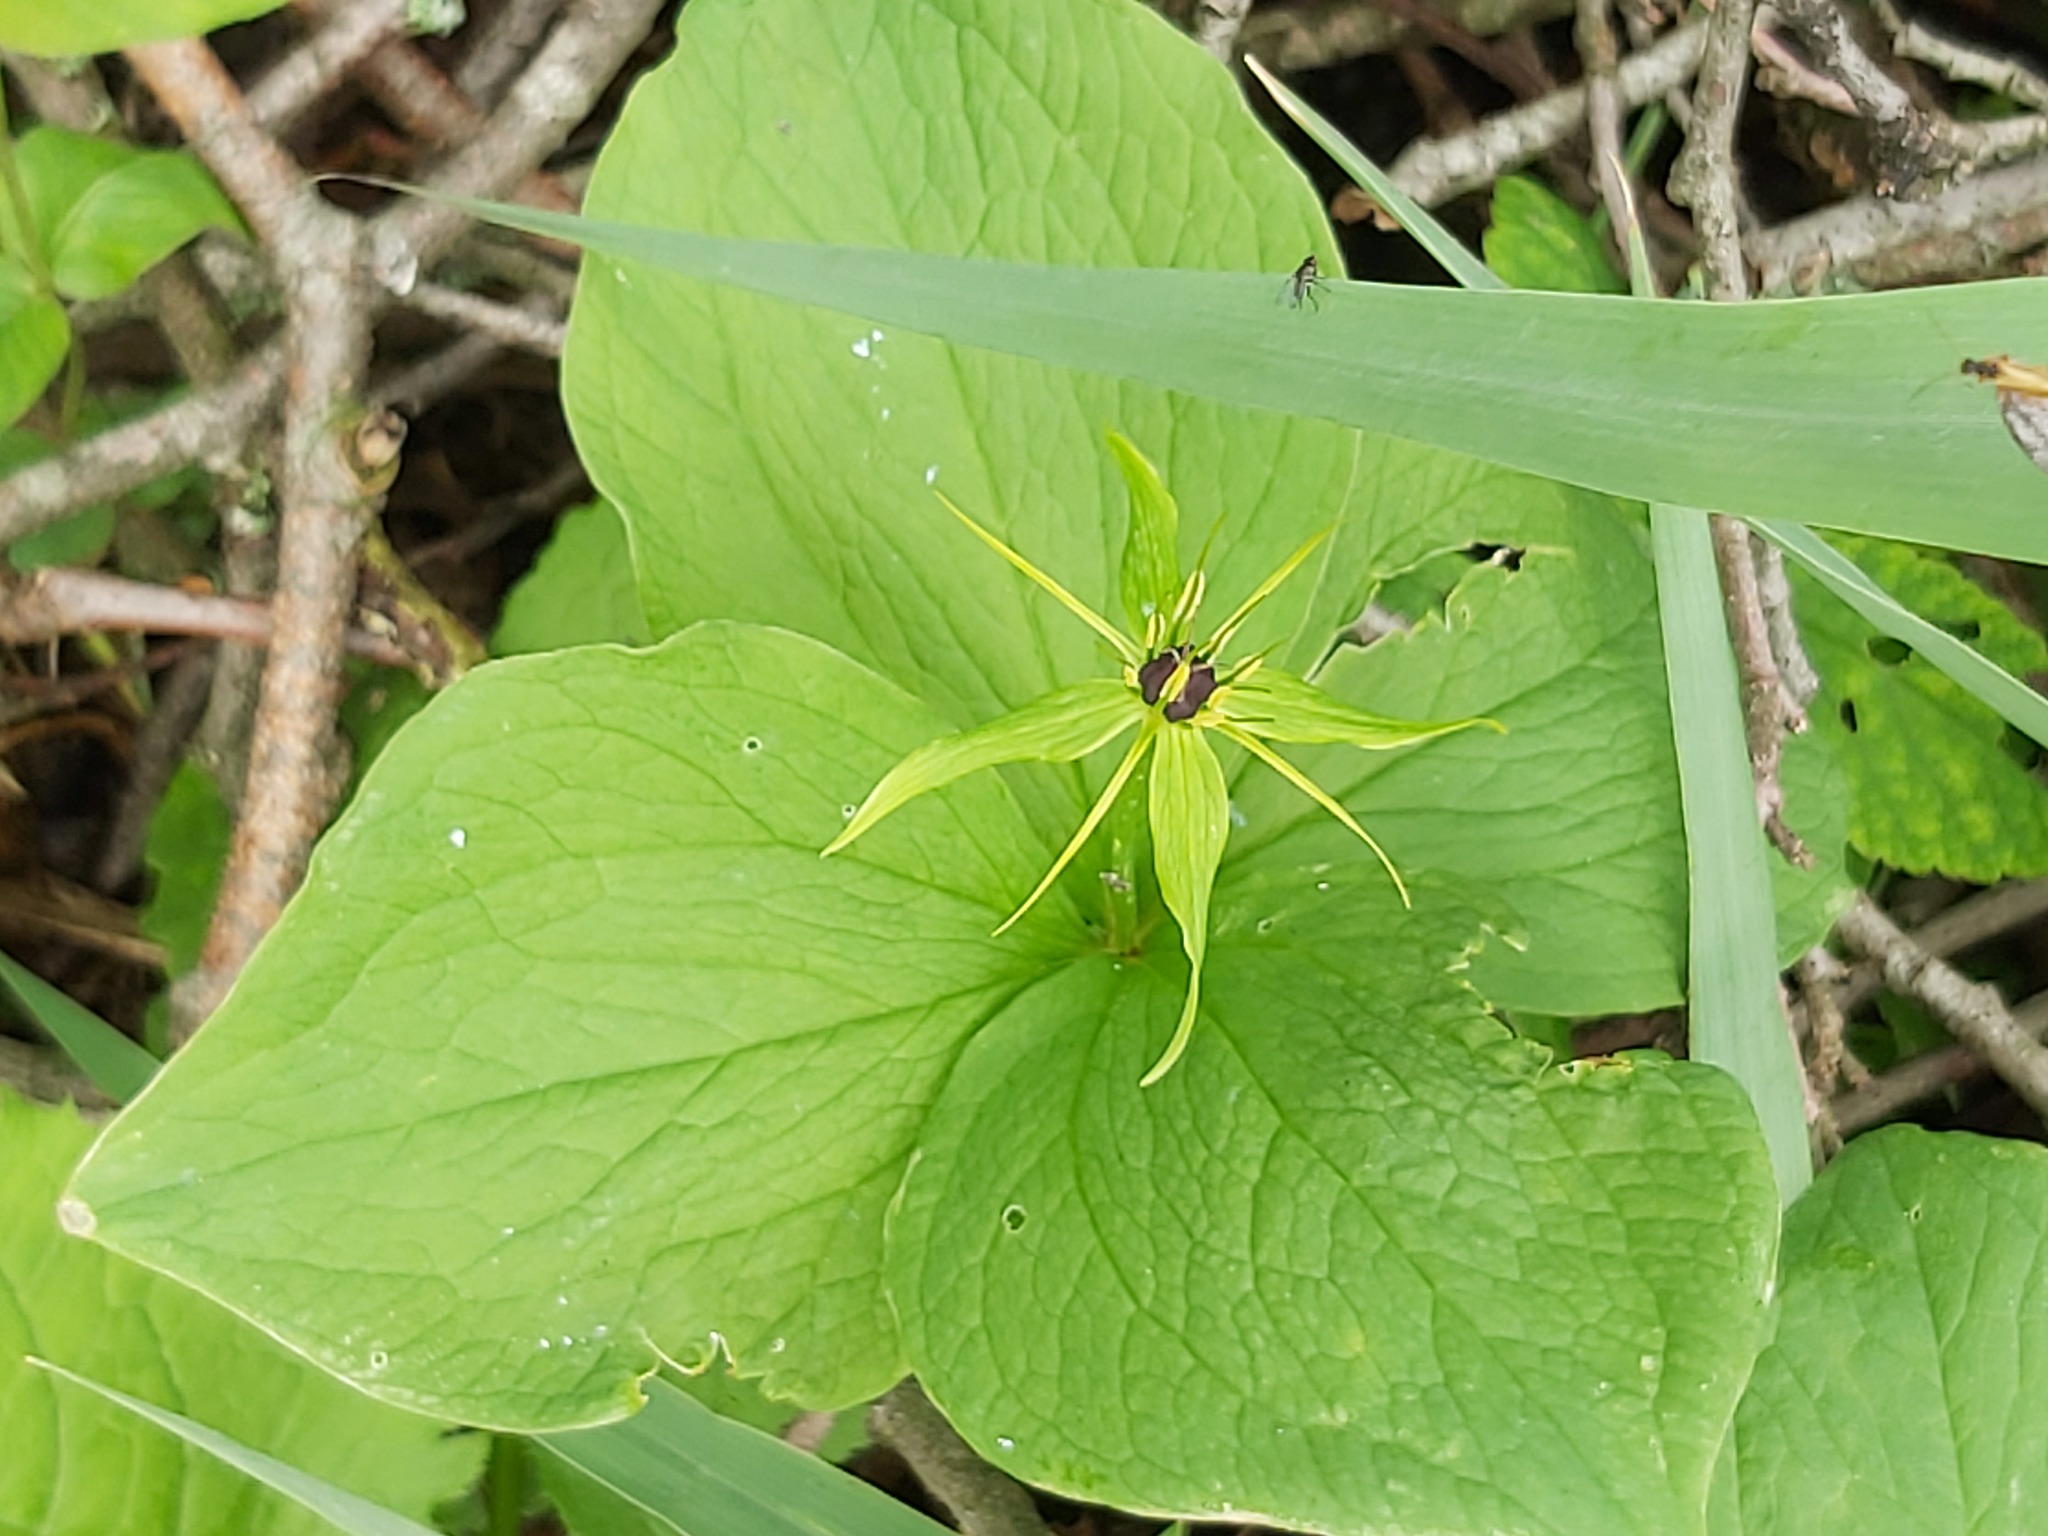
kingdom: Plantae
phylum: Tracheophyta
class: Liliopsida
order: Liliales
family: Melanthiaceae
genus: Paris
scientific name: Paris quadrifolia
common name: Herb-paris
